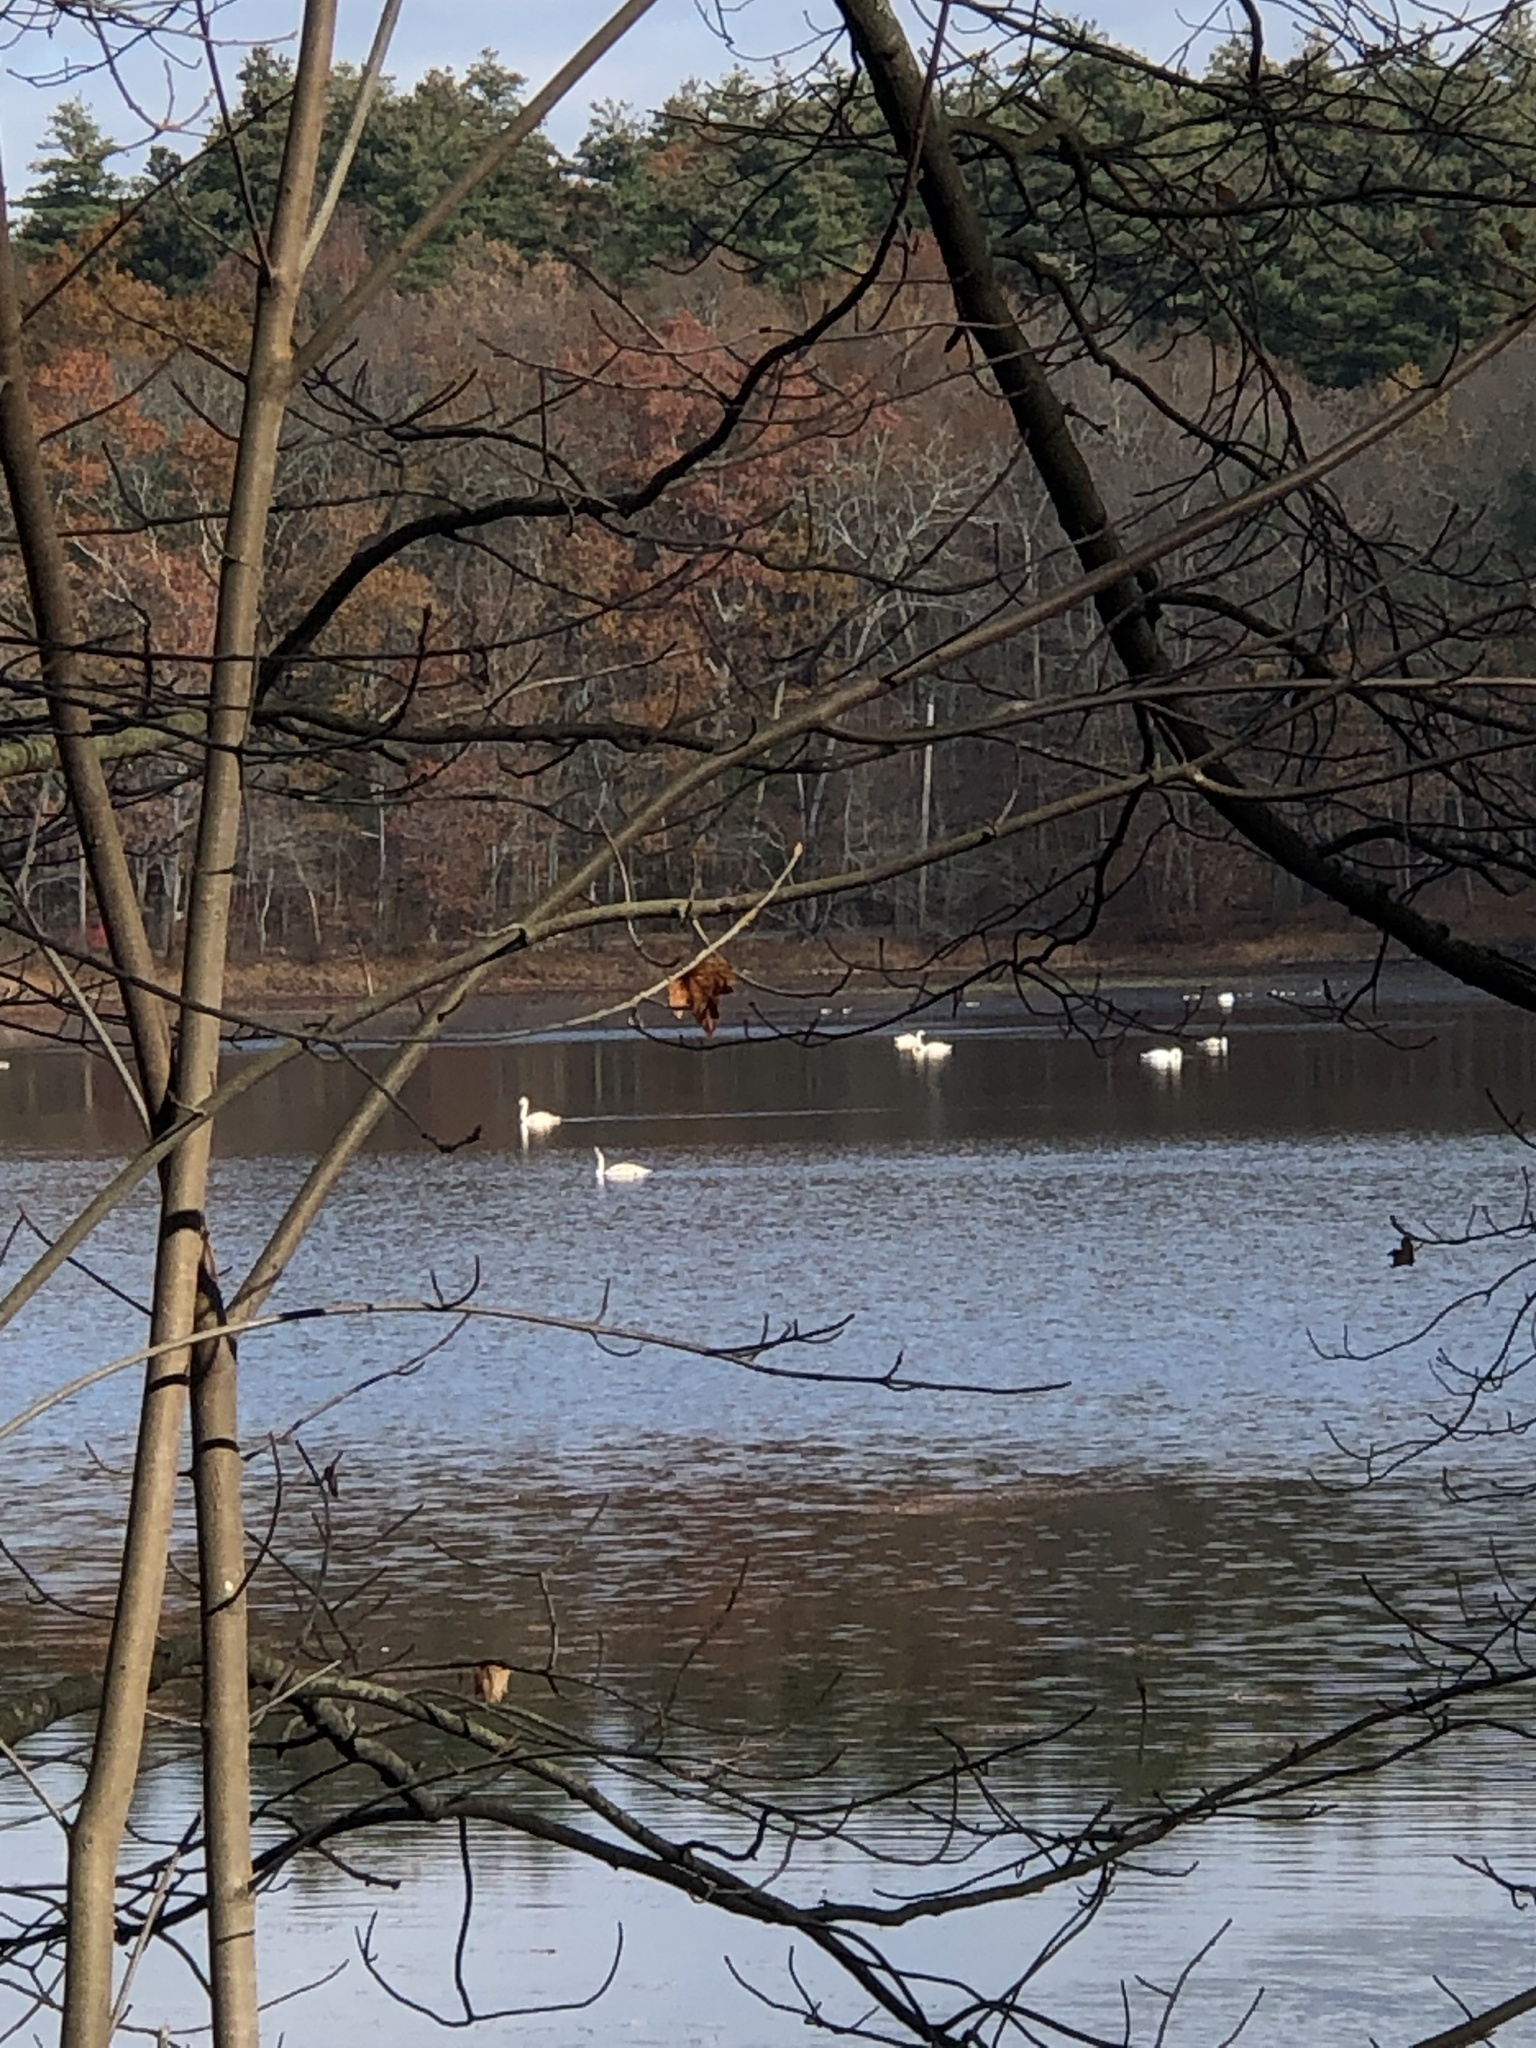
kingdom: Animalia
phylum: Chordata
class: Aves
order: Anseriformes
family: Anatidae
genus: Cygnus
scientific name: Cygnus olor
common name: Mute swan
